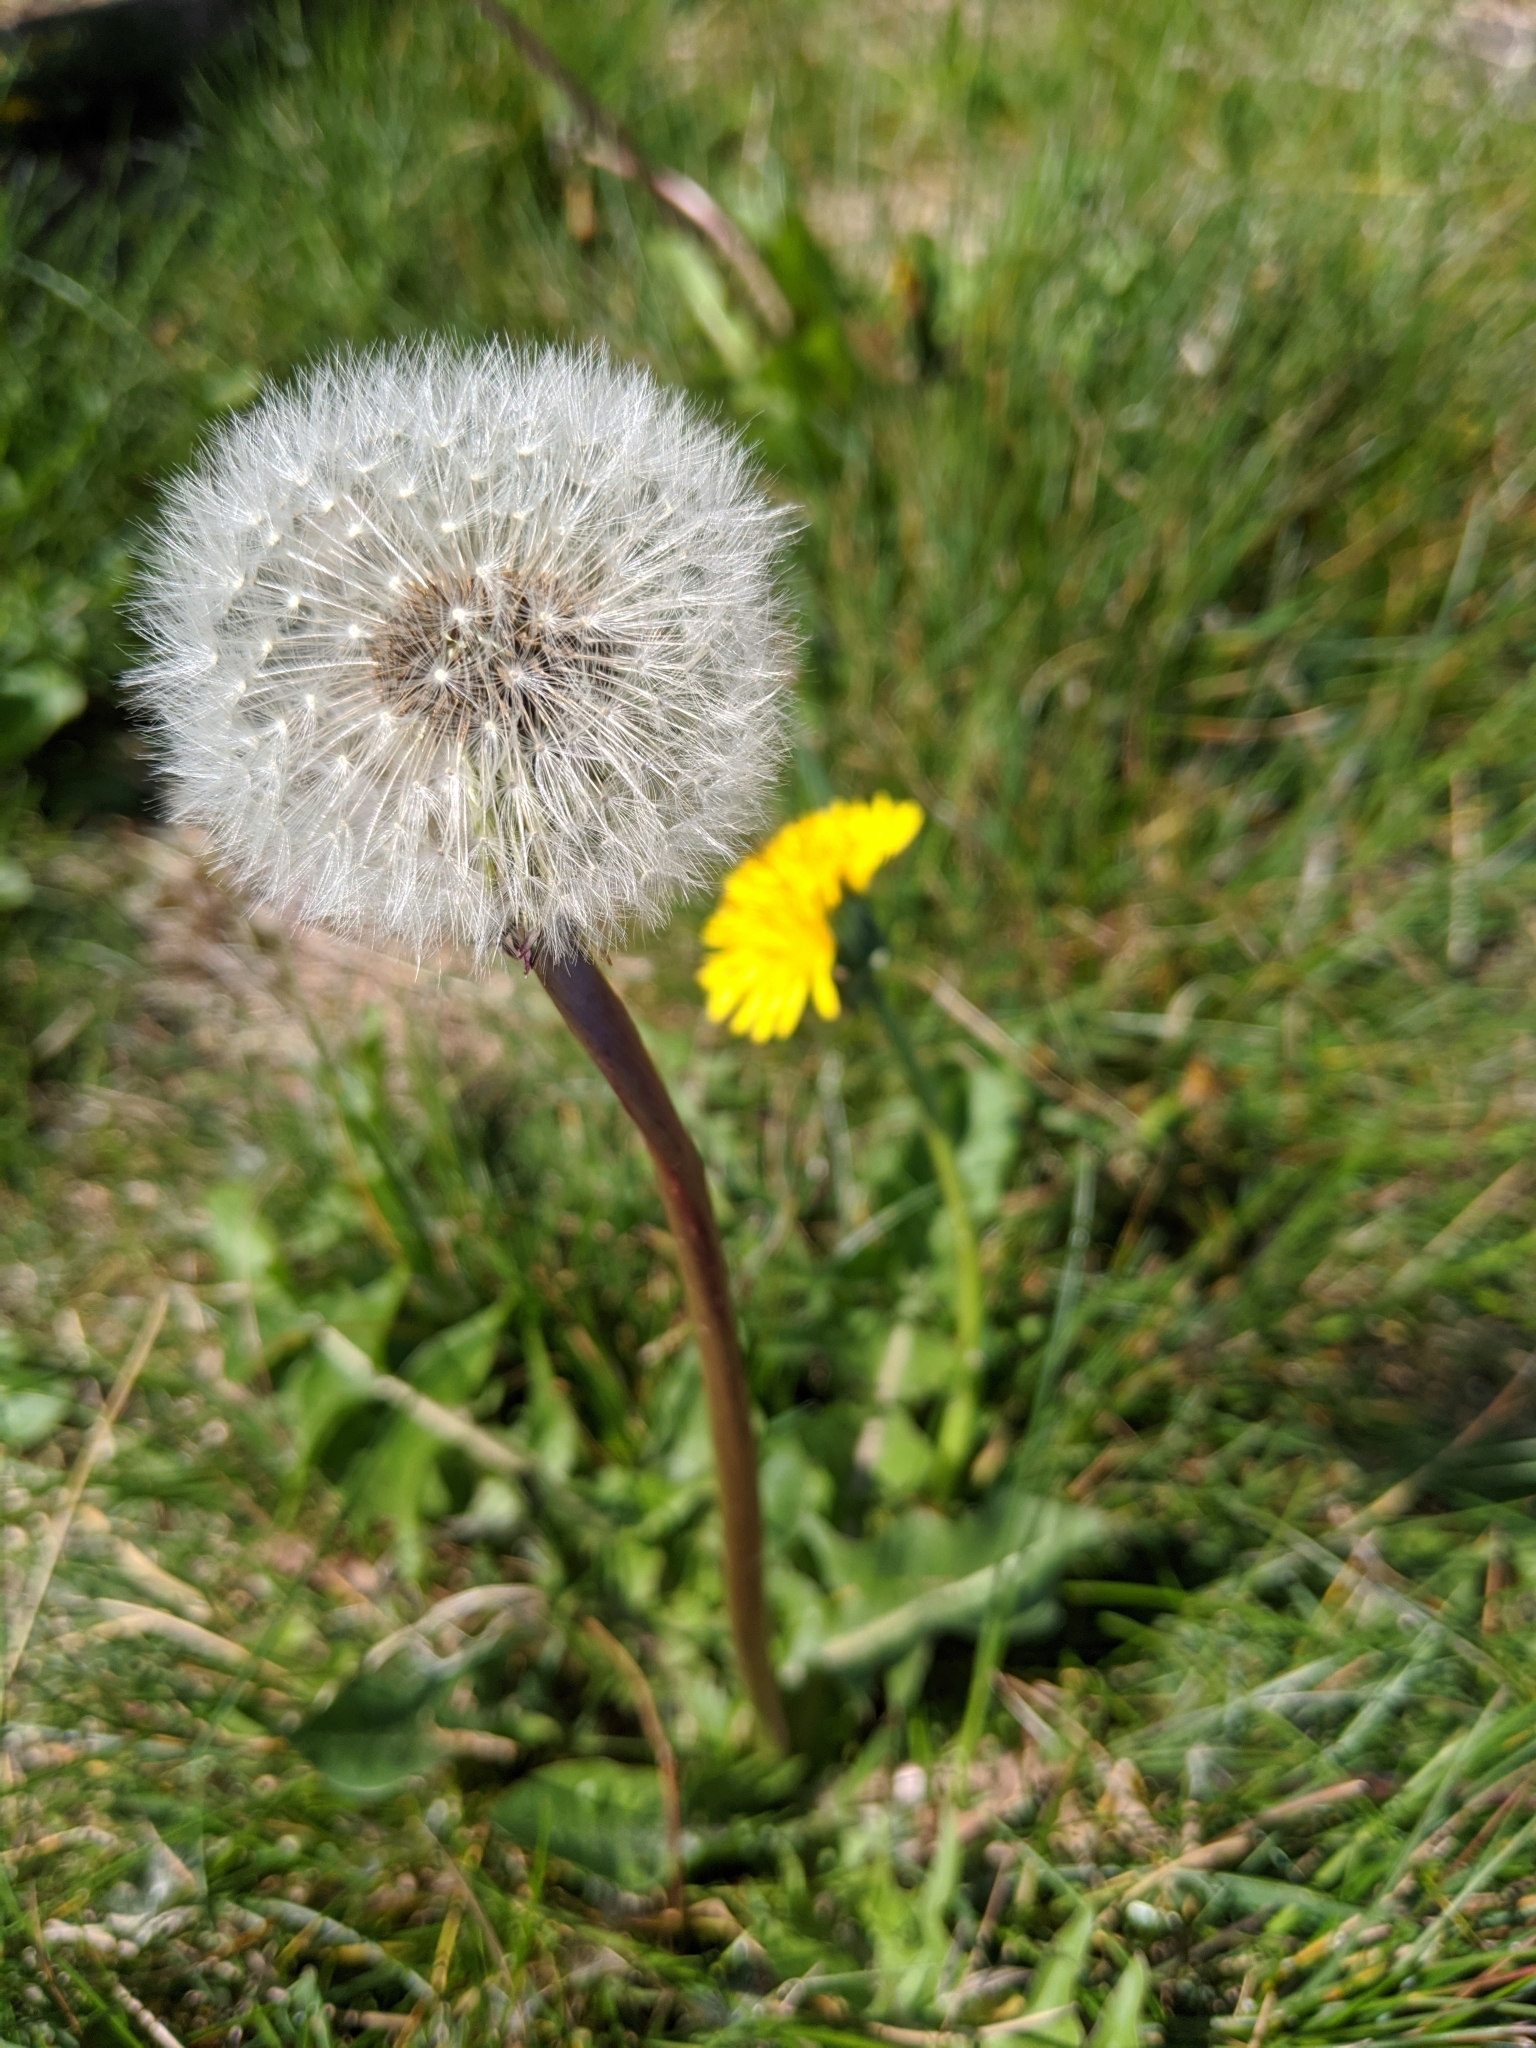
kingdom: Plantae
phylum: Tracheophyta
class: Magnoliopsida
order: Asterales
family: Asteraceae
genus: Taraxacum
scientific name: Taraxacum officinale
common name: Common dandelion
